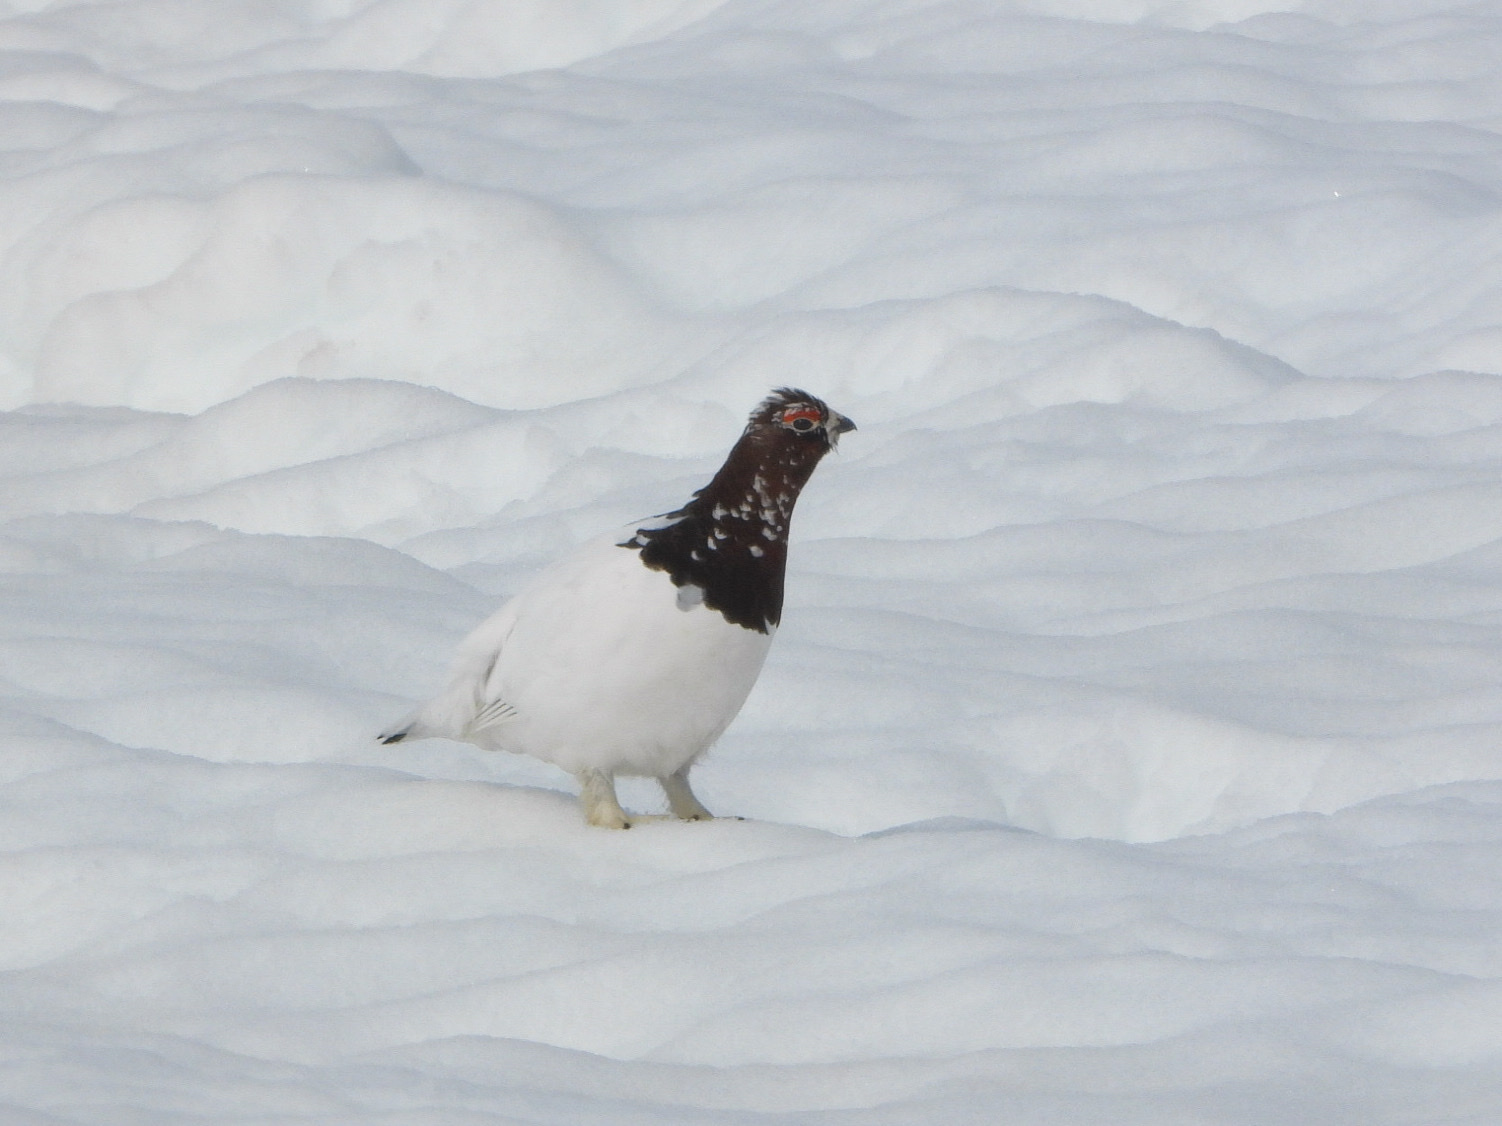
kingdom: Animalia
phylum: Chordata
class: Aves
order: Galliformes
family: Phasianidae
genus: Lagopus
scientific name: Lagopus lagopus
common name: Willow ptarmigan
